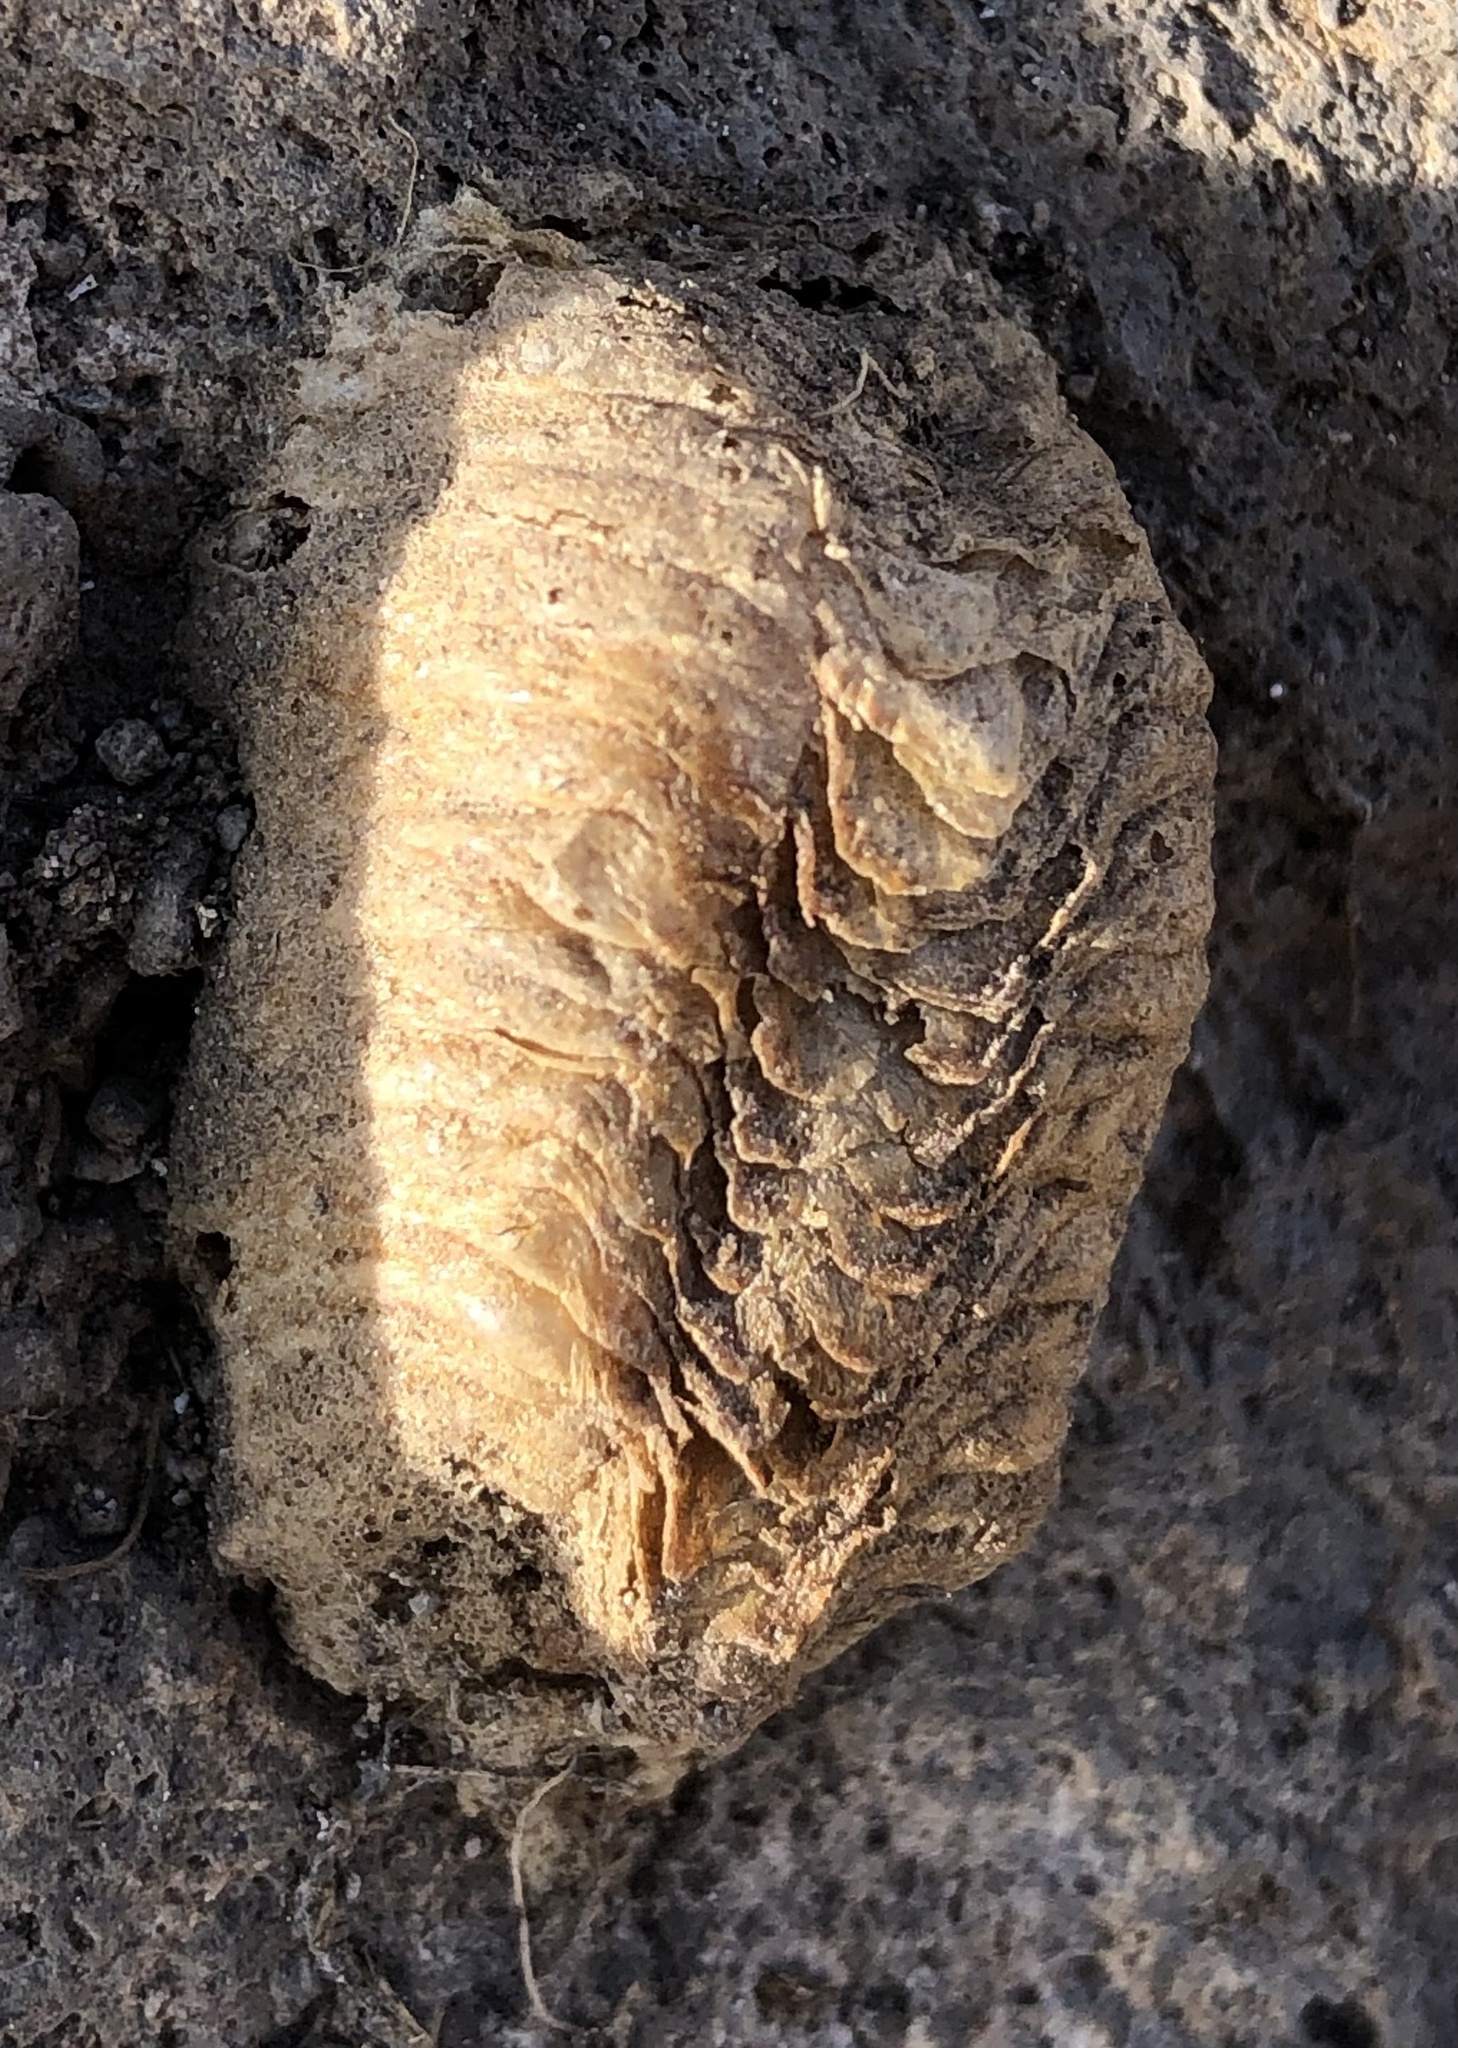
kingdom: Animalia
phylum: Arthropoda
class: Insecta
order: Mantodea
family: Mantidae
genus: Mantis
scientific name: Mantis religiosa
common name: Praying mantis
